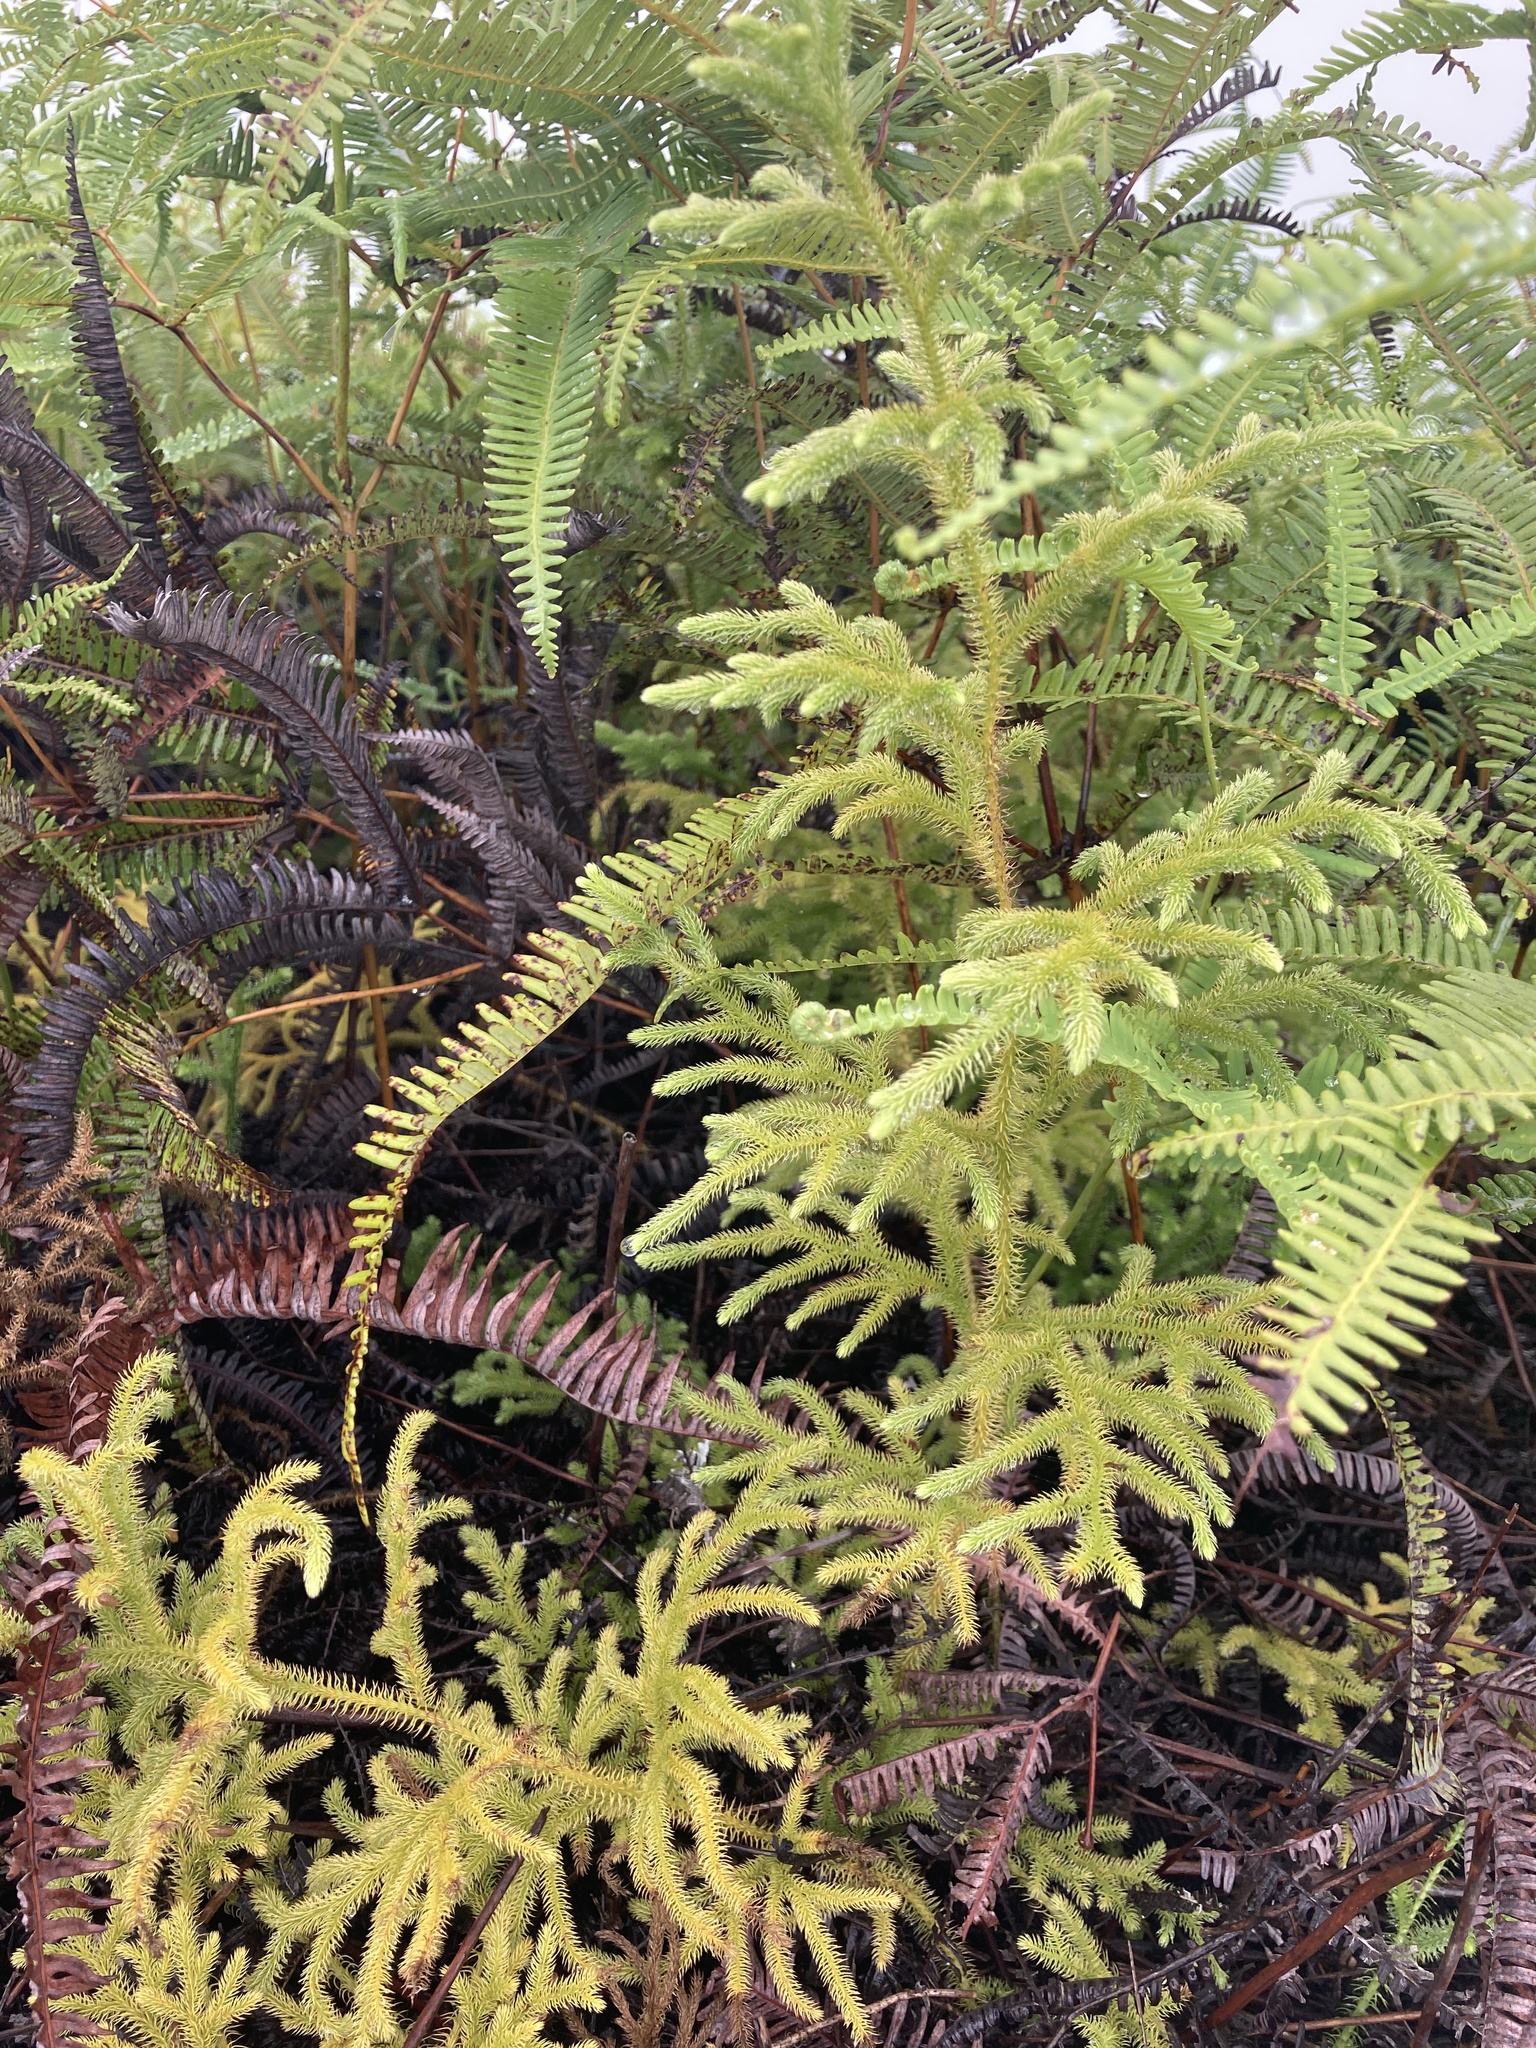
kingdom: Plantae
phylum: Tracheophyta
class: Lycopodiopsida
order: Lycopodiales
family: Lycopodiaceae
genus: Palhinhaea
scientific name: Palhinhaea cernua
